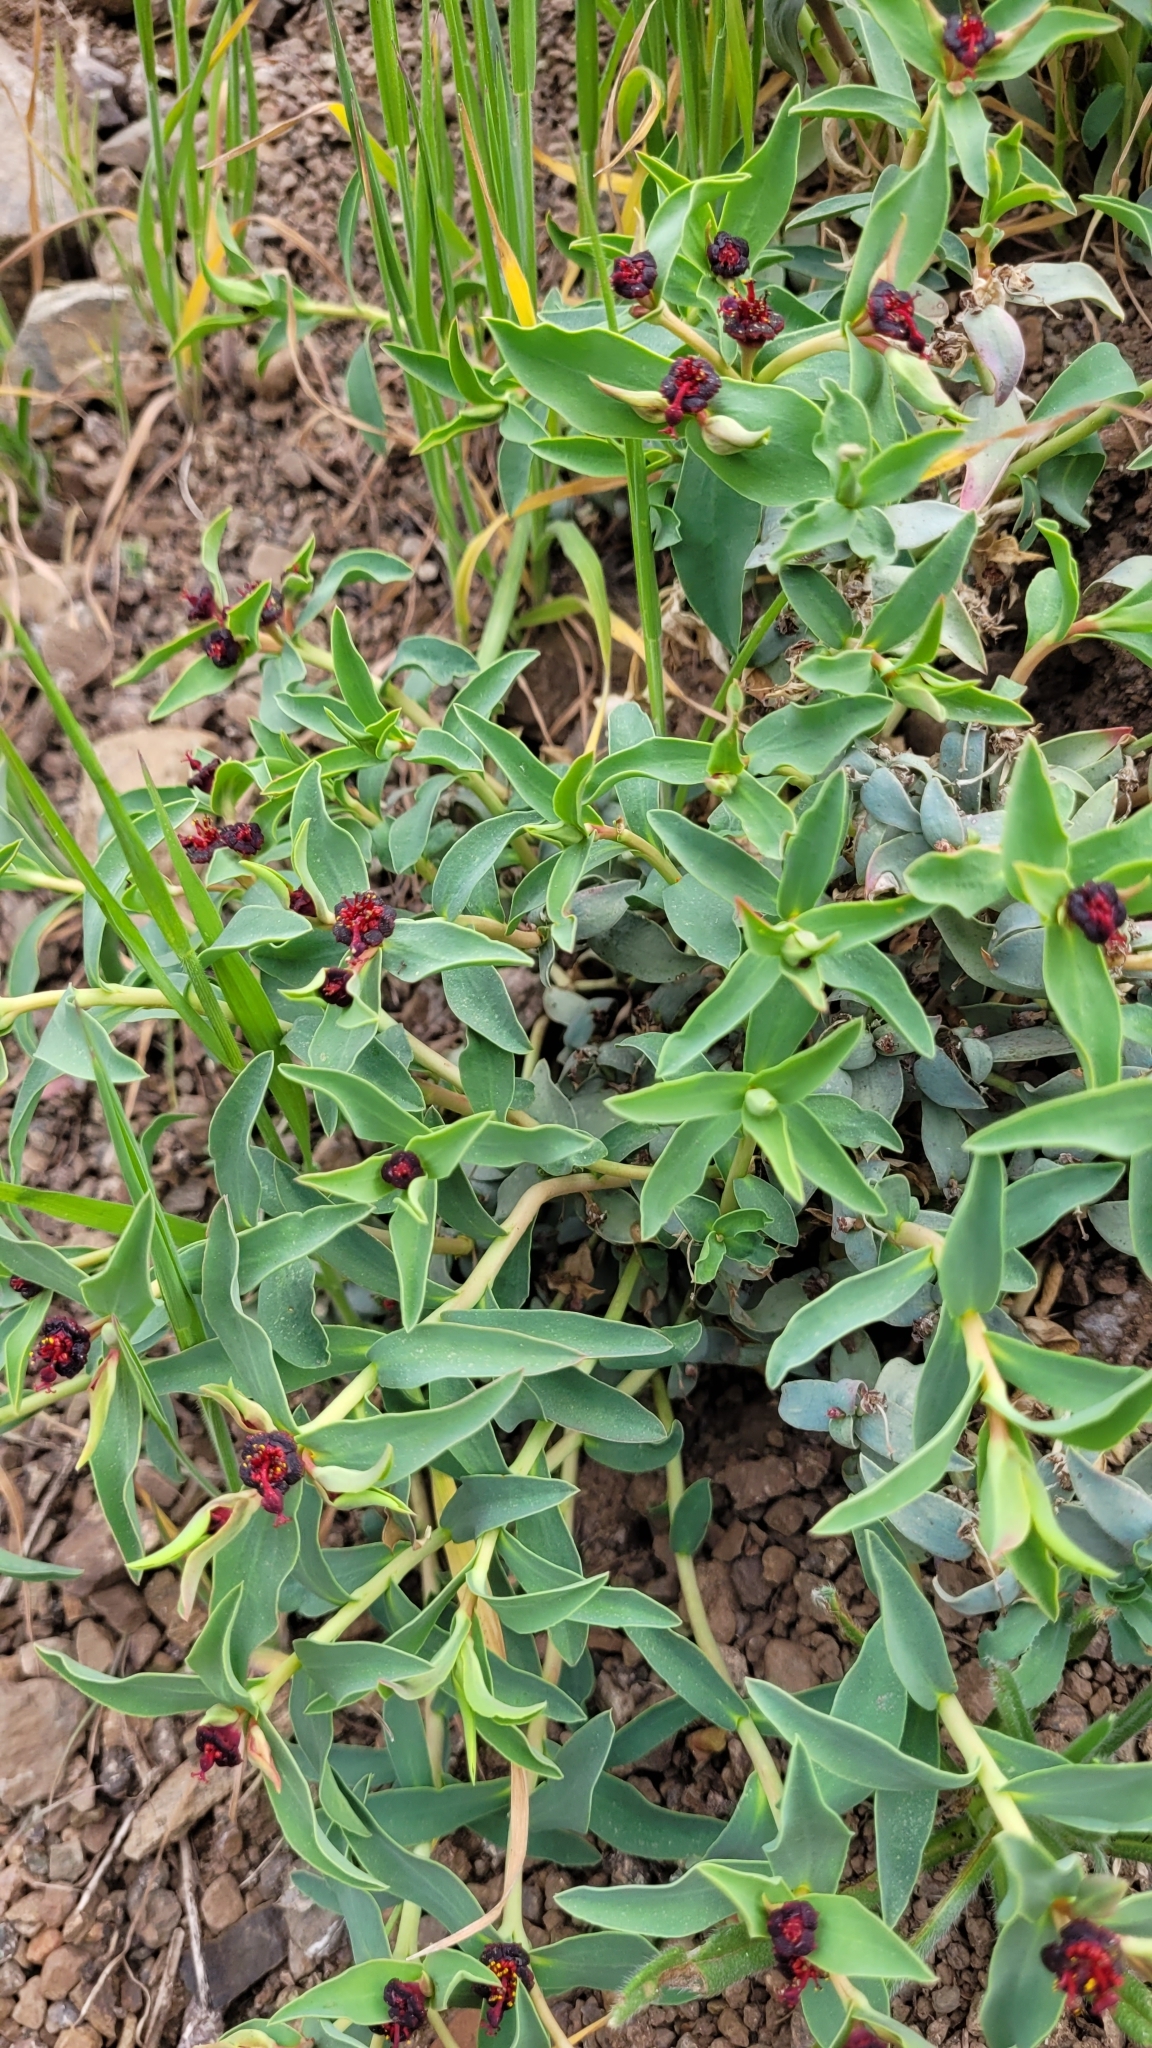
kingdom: Plantae
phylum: Tracheophyta
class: Magnoliopsida
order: Malpighiales
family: Euphorbiaceae
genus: Euphorbia
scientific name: Euphorbia portulacoides
